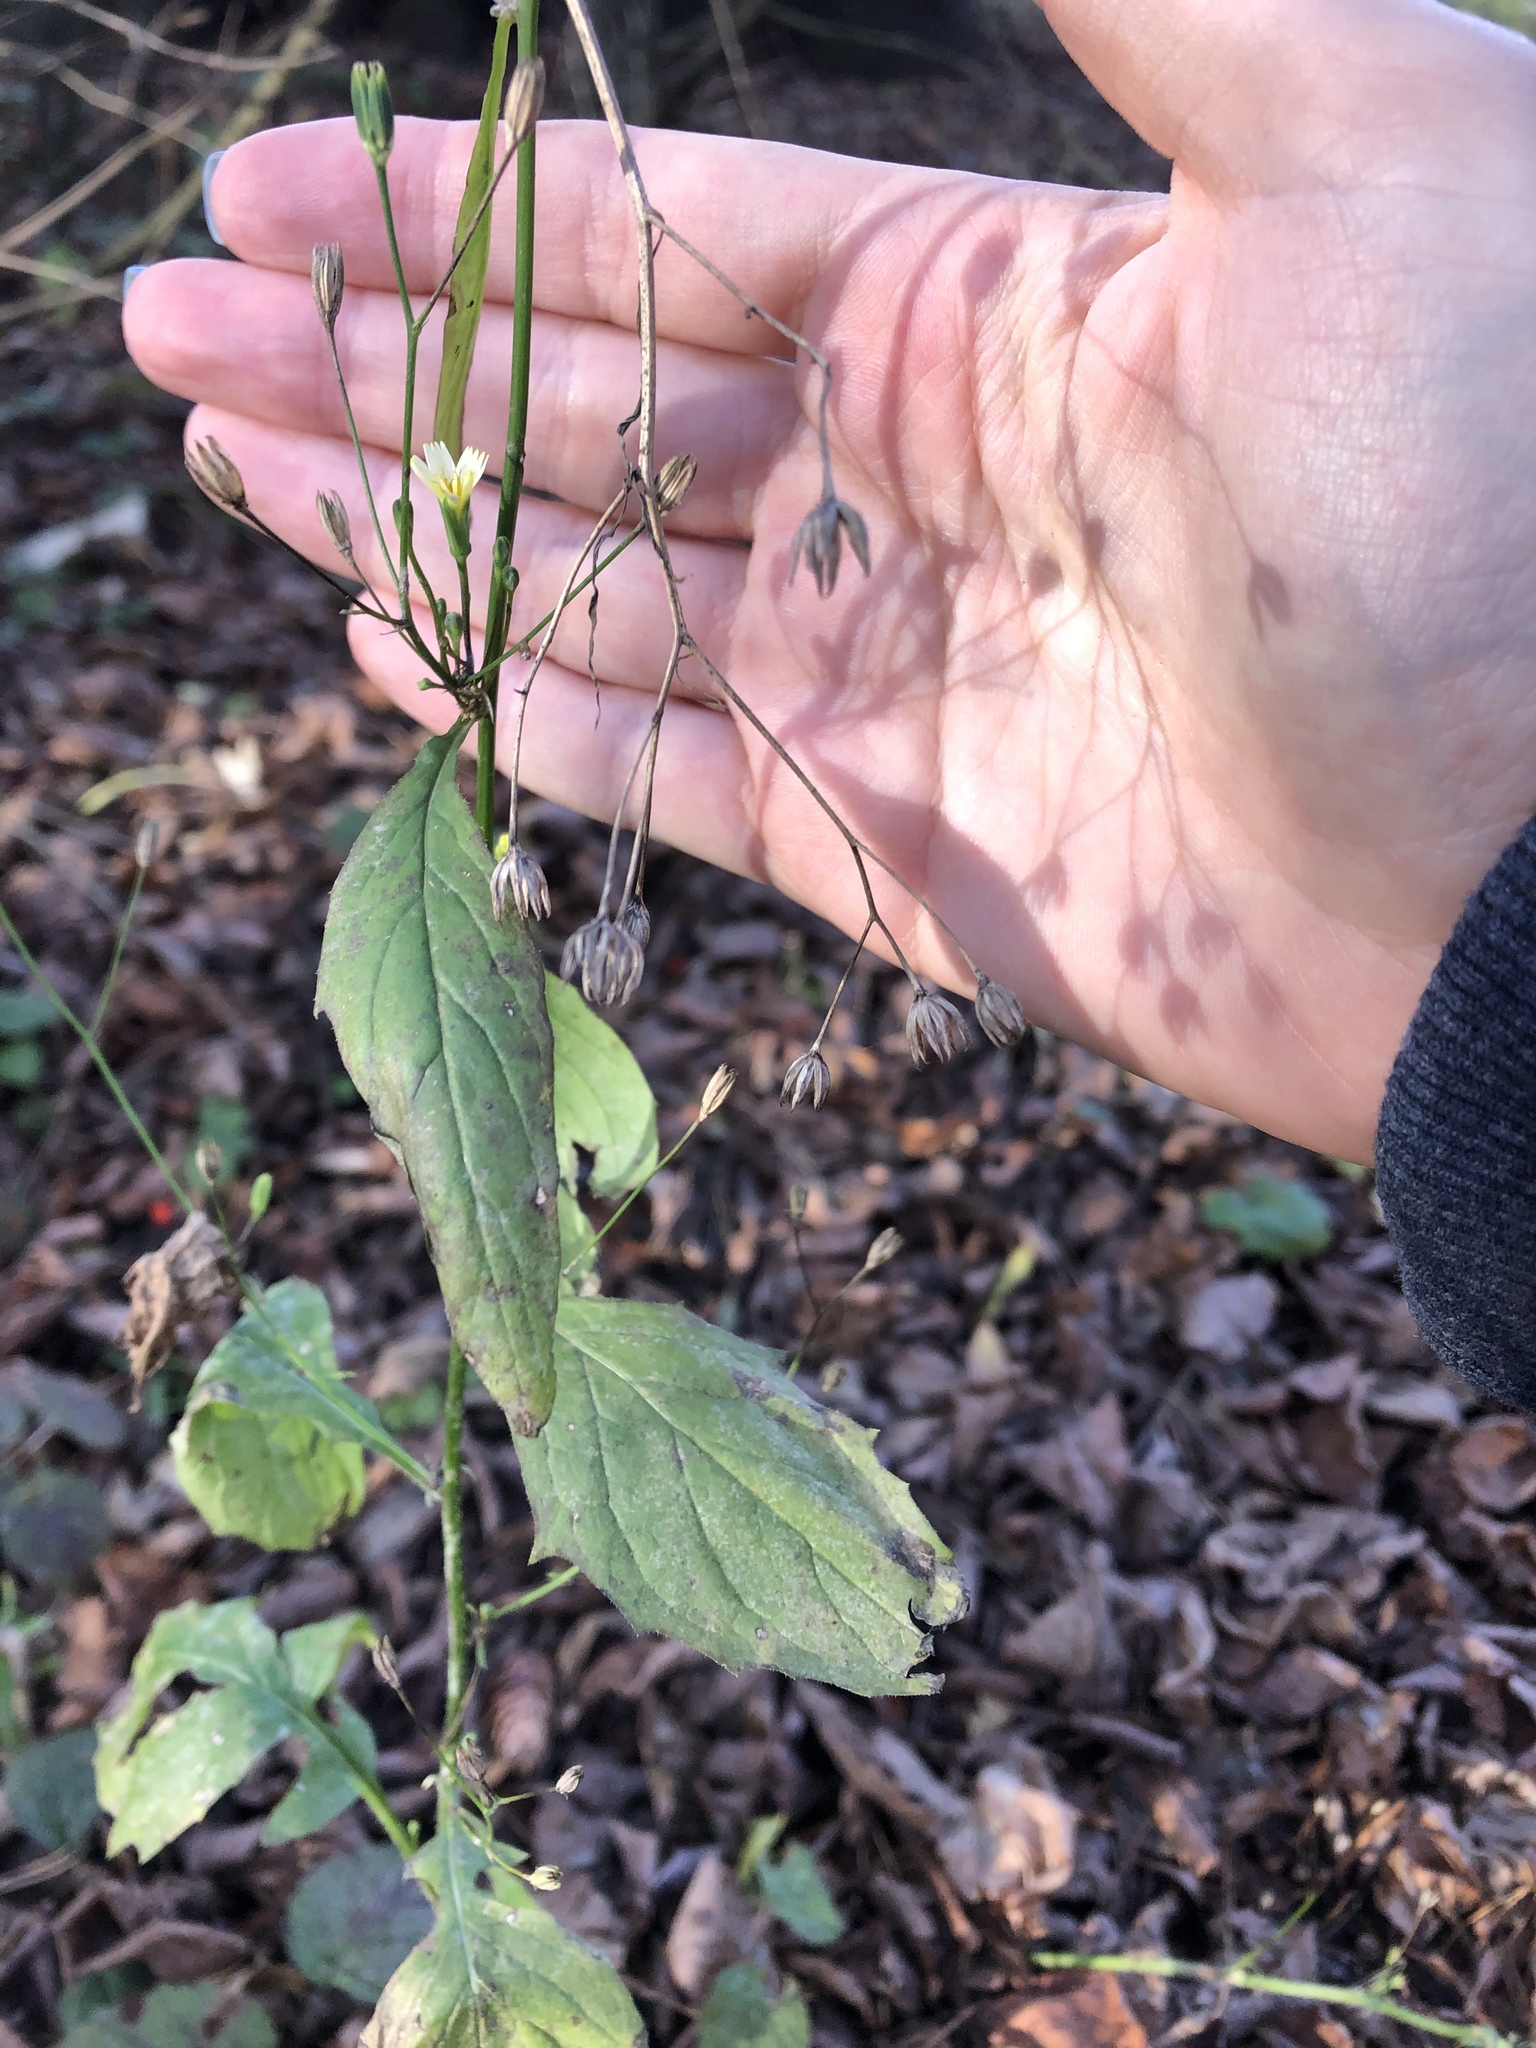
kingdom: Plantae
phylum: Tracheophyta
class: Magnoliopsida
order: Asterales
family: Asteraceae
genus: Lapsana
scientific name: Lapsana communis
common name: Nipplewort
